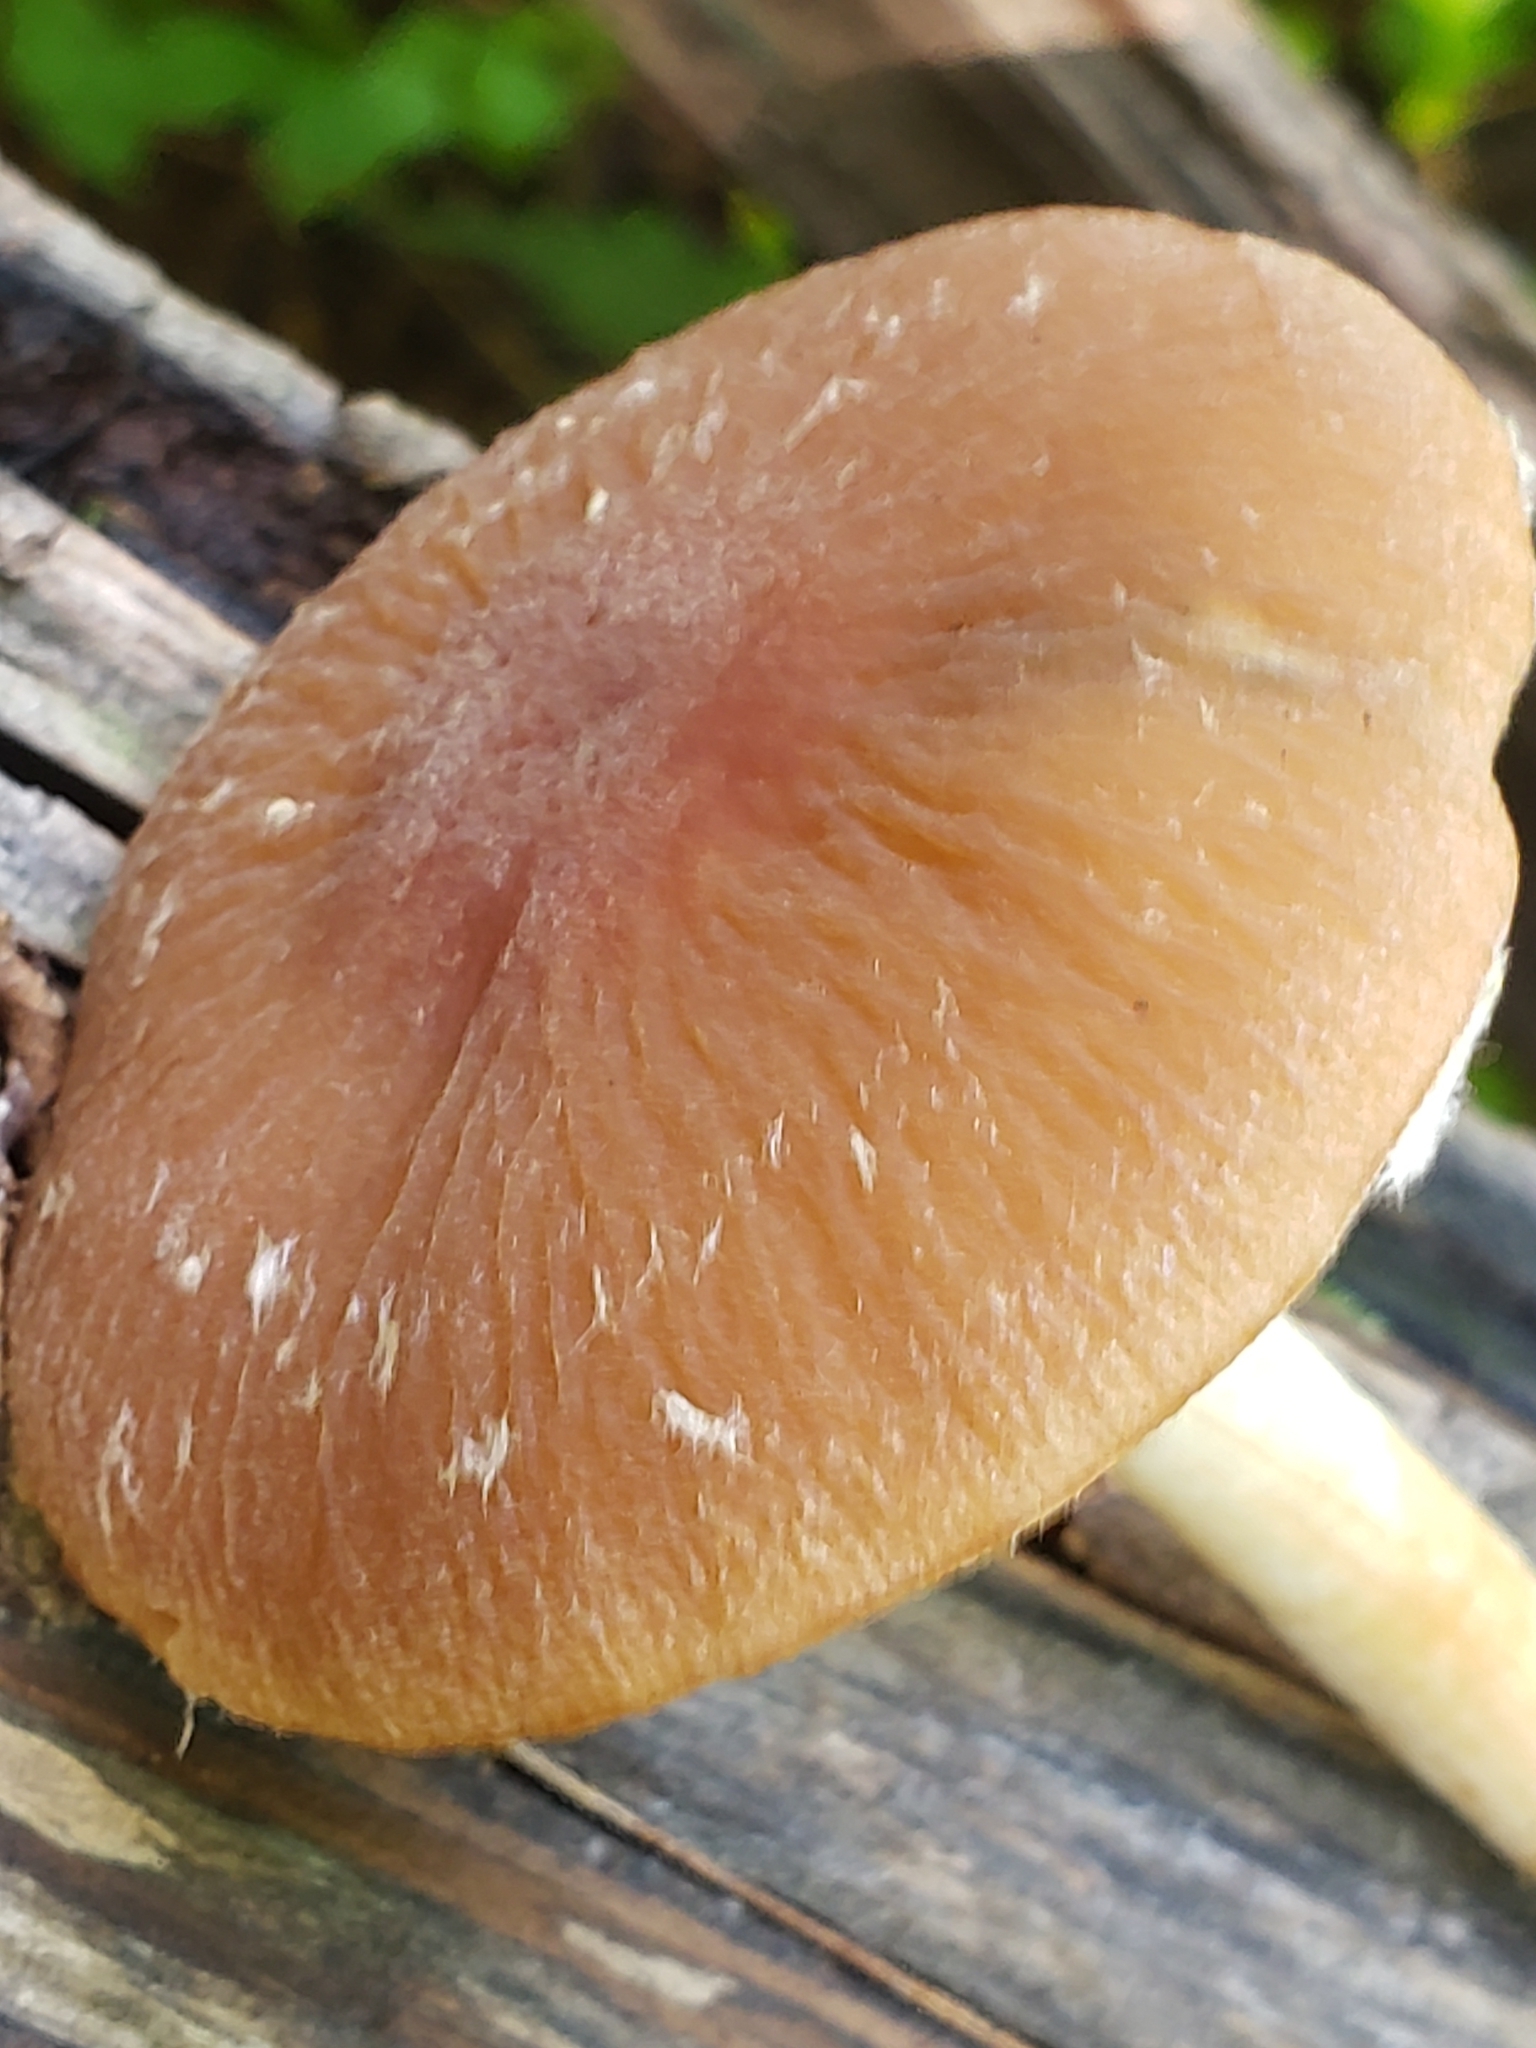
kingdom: Fungi
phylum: Basidiomycota
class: Agaricomycetes
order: Agaricales
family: Psathyrellaceae
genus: Typhrasa
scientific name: Typhrasa gossypina
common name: Wrinkled psathyrella
